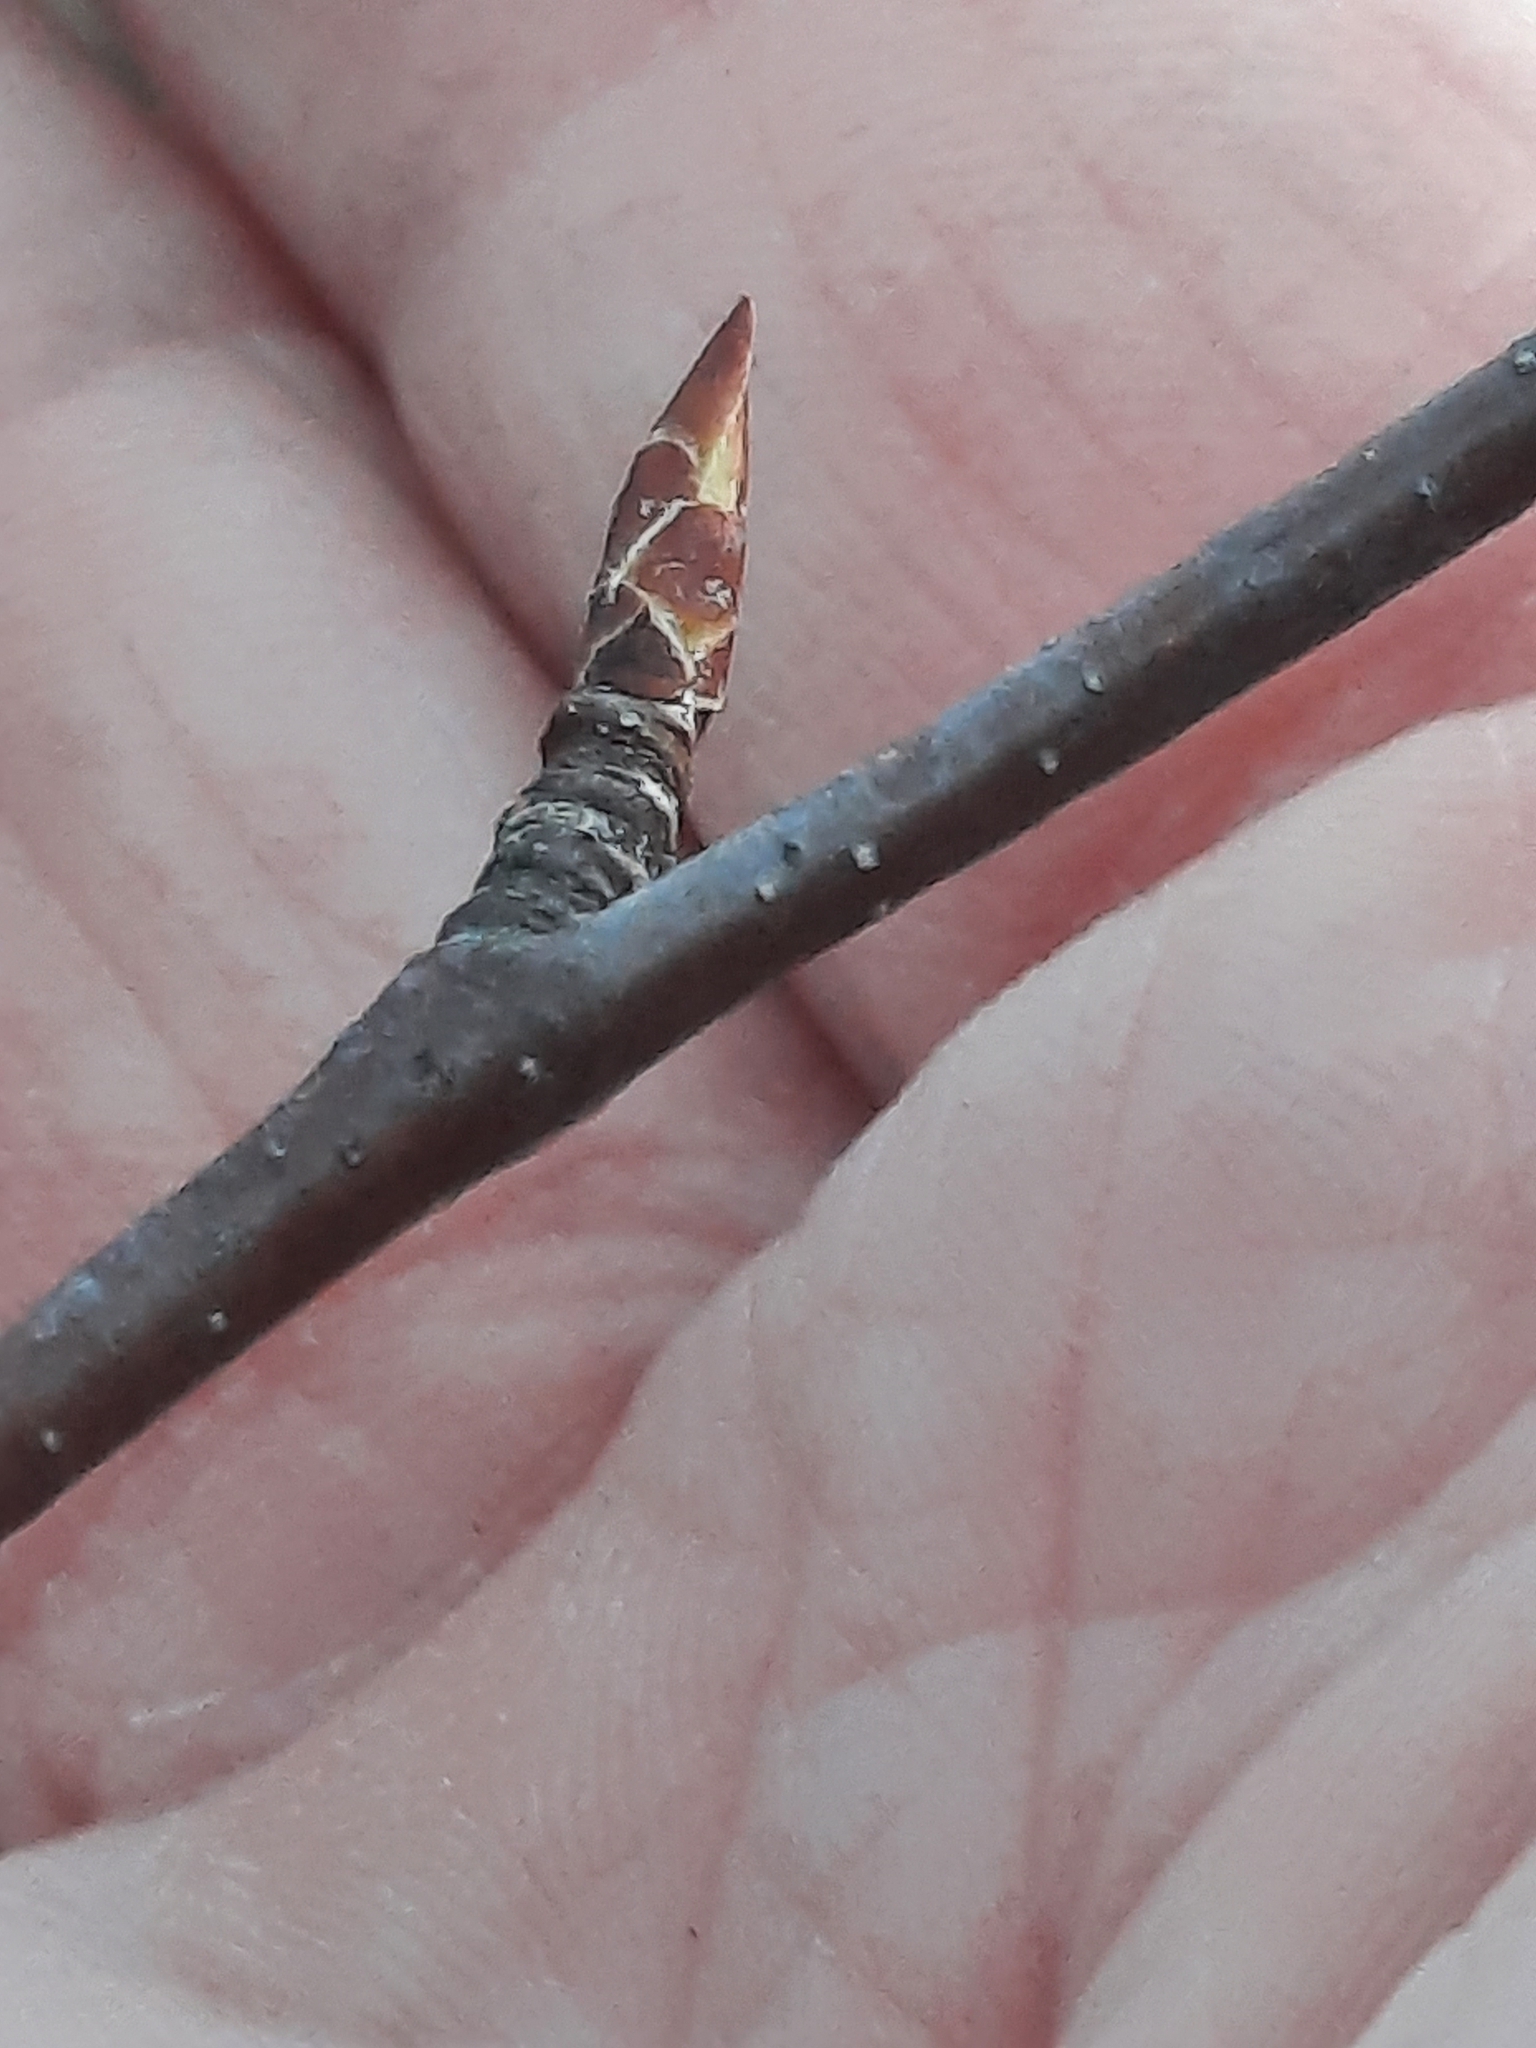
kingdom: Plantae
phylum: Tracheophyta
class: Magnoliopsida
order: Fagales
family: Betulaceae
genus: Betula
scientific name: Betula lenta
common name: Black birch
